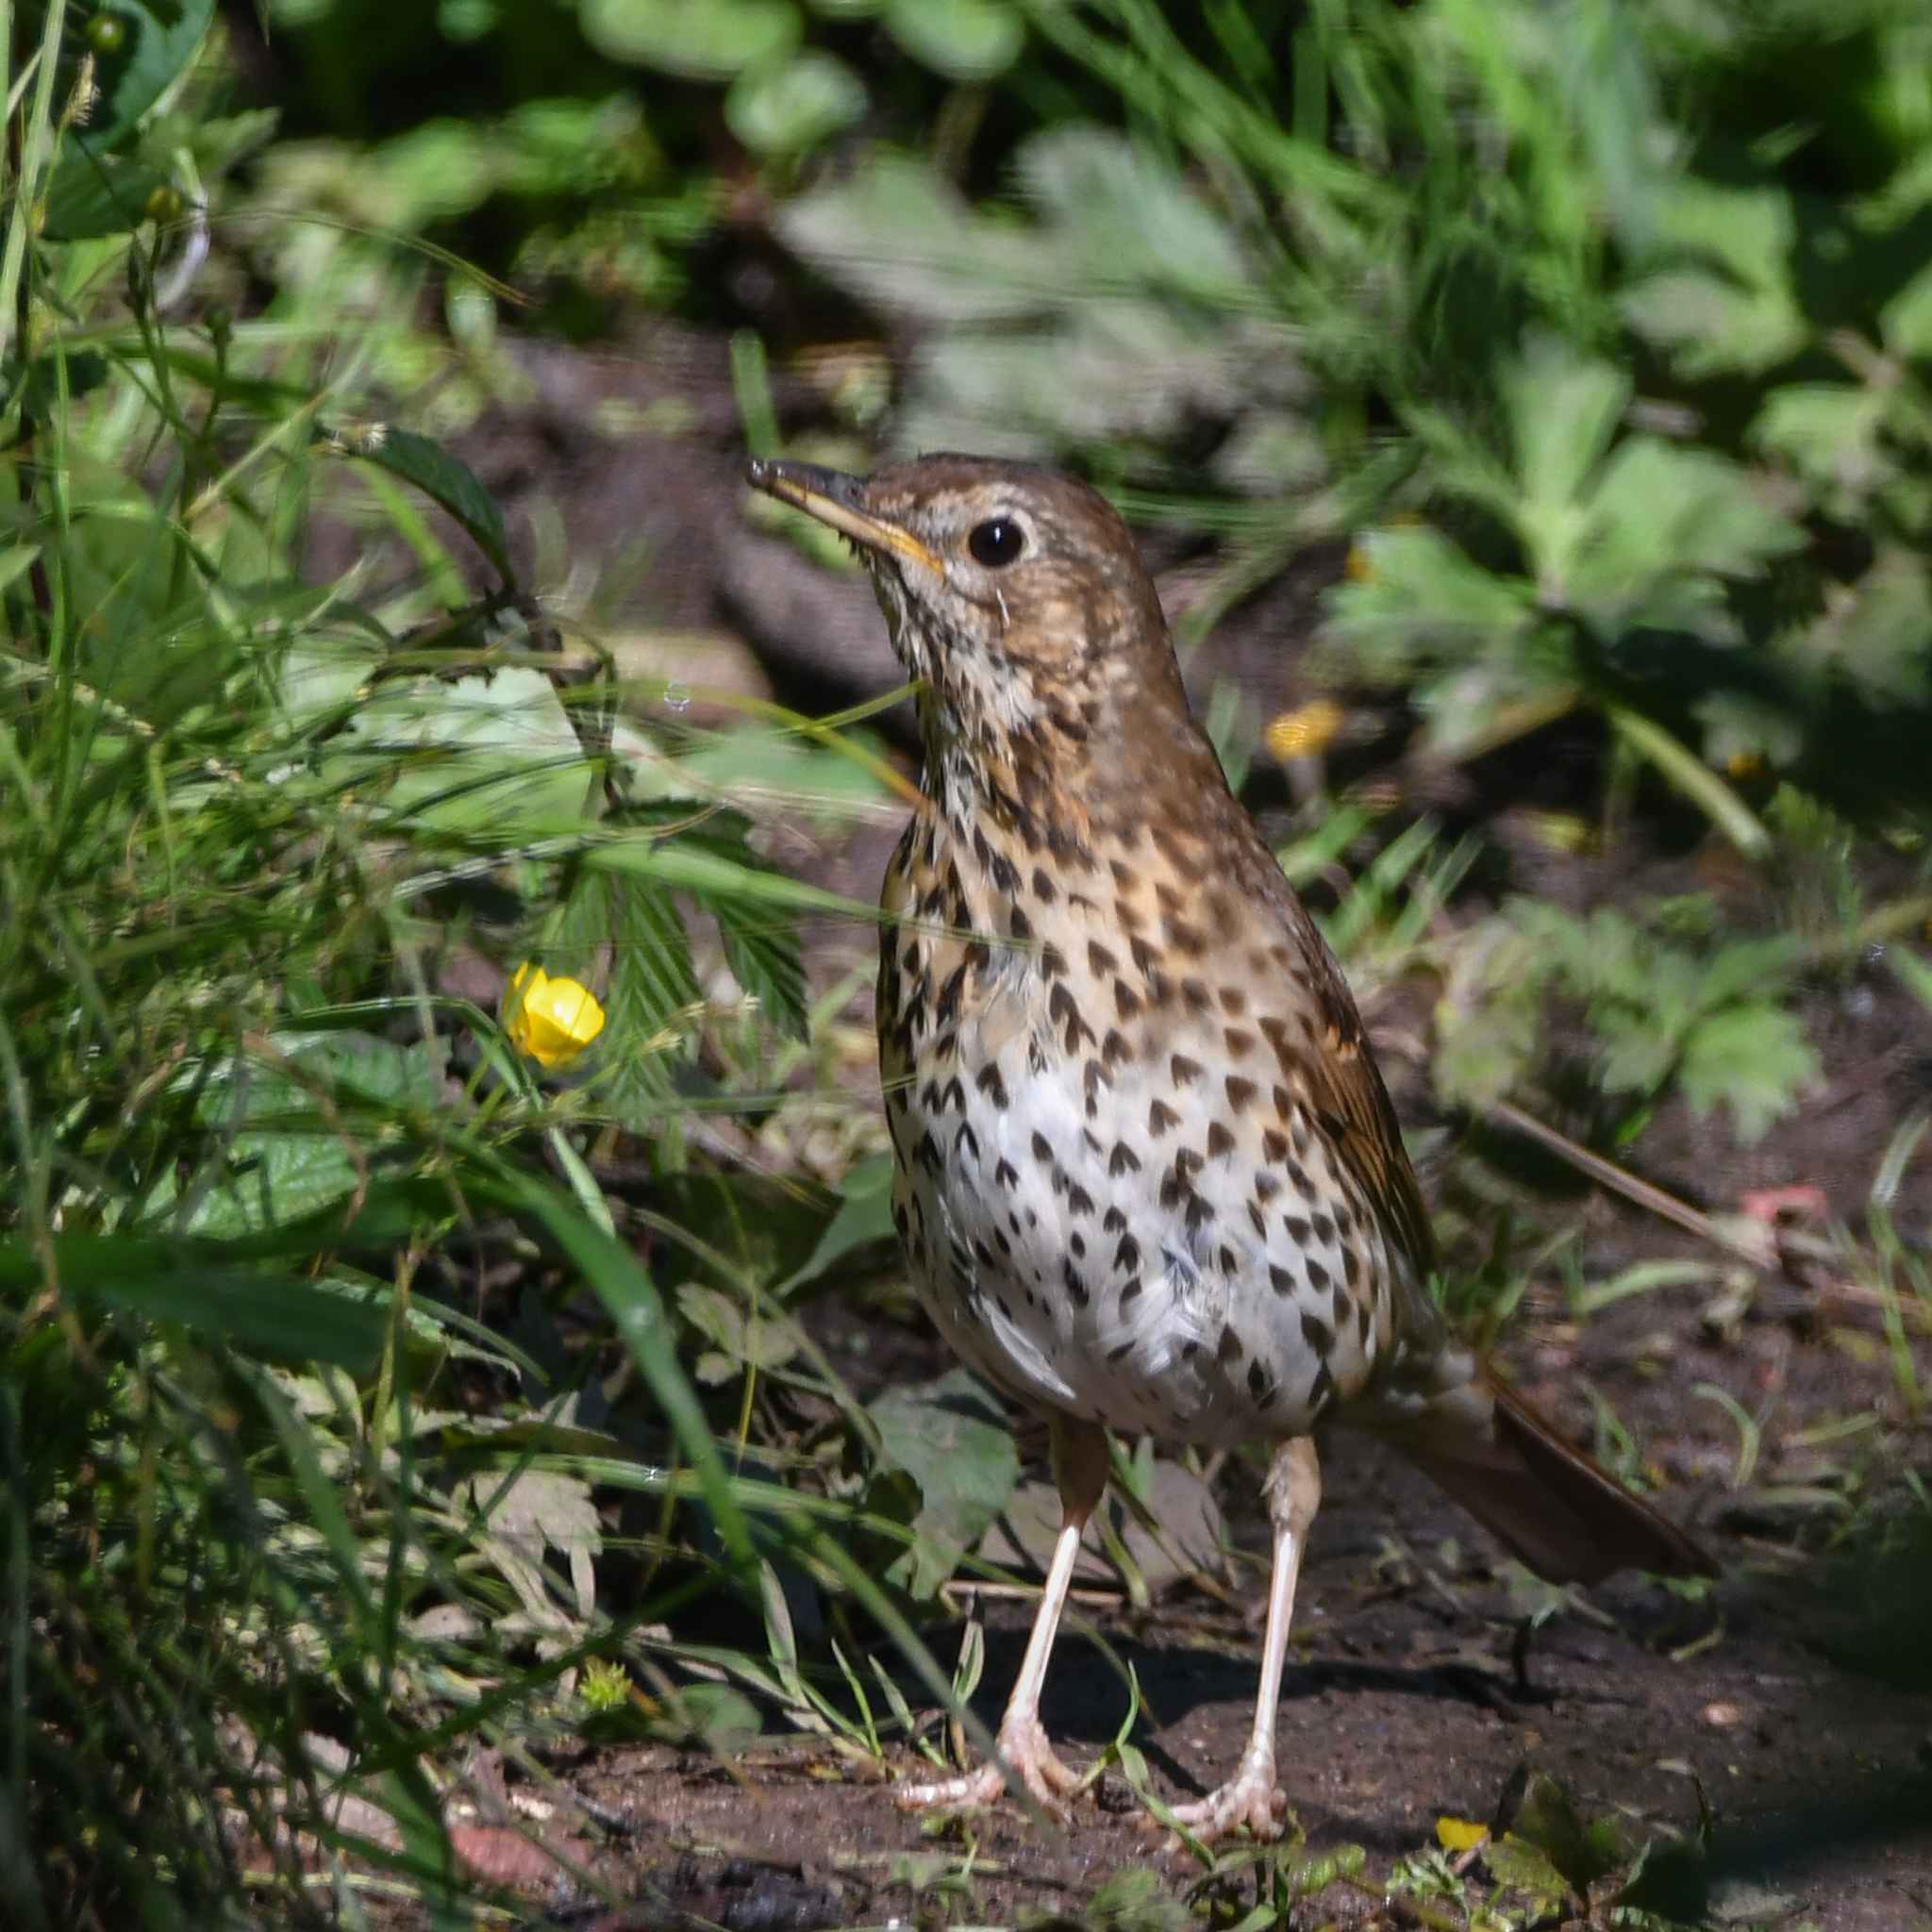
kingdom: Animalia
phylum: Chordata
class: Aves
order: Passeriformes
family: Turdidae
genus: Turdus
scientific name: Turdus philomelos
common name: Song thrush
